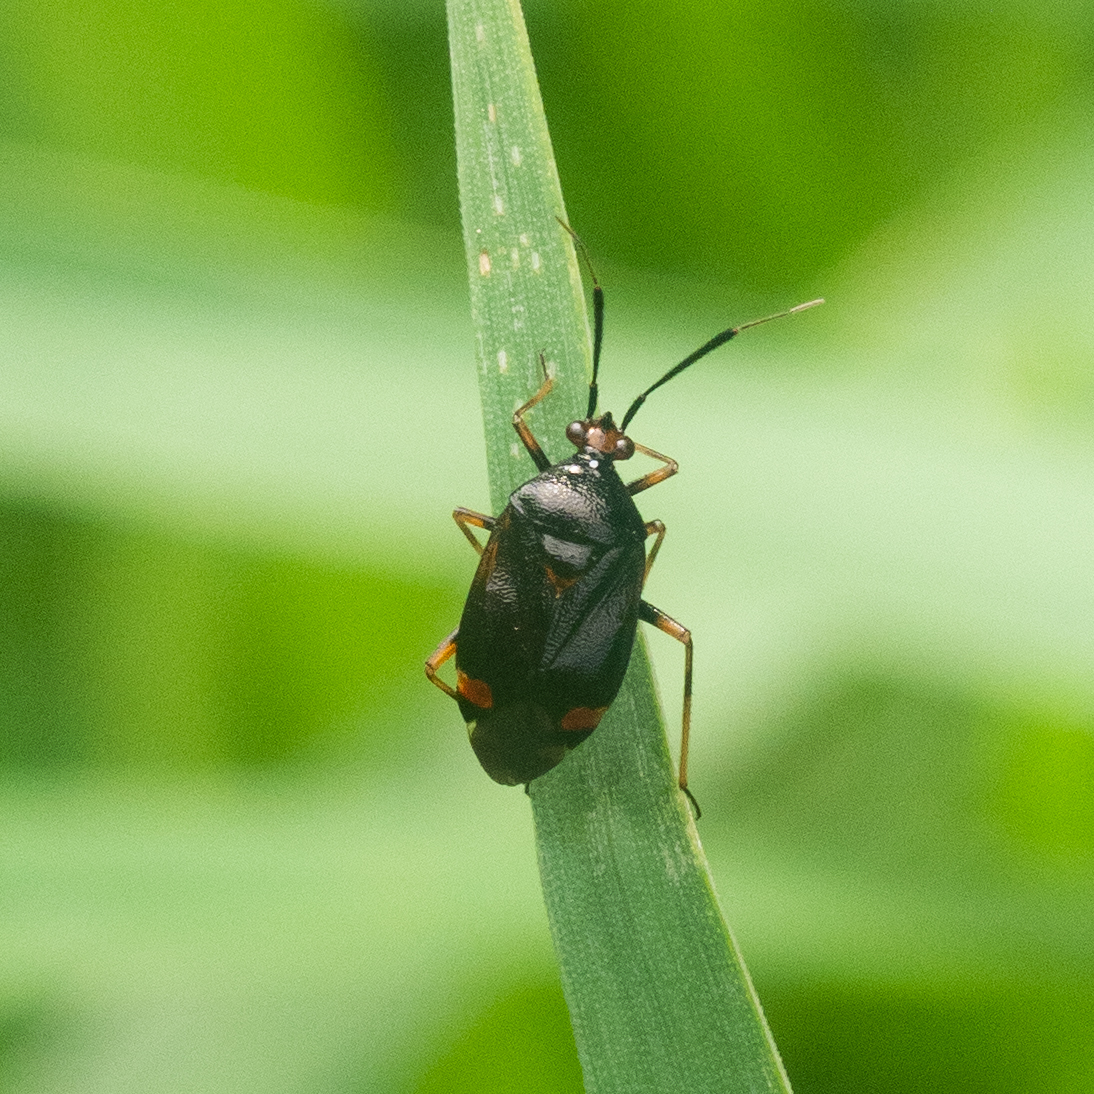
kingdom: Animalia
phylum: Arthropoda
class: Insecta
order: Hemiptera
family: Miridae
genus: Deraeocoris
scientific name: Deraeocoris ruber
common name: Plant bug
